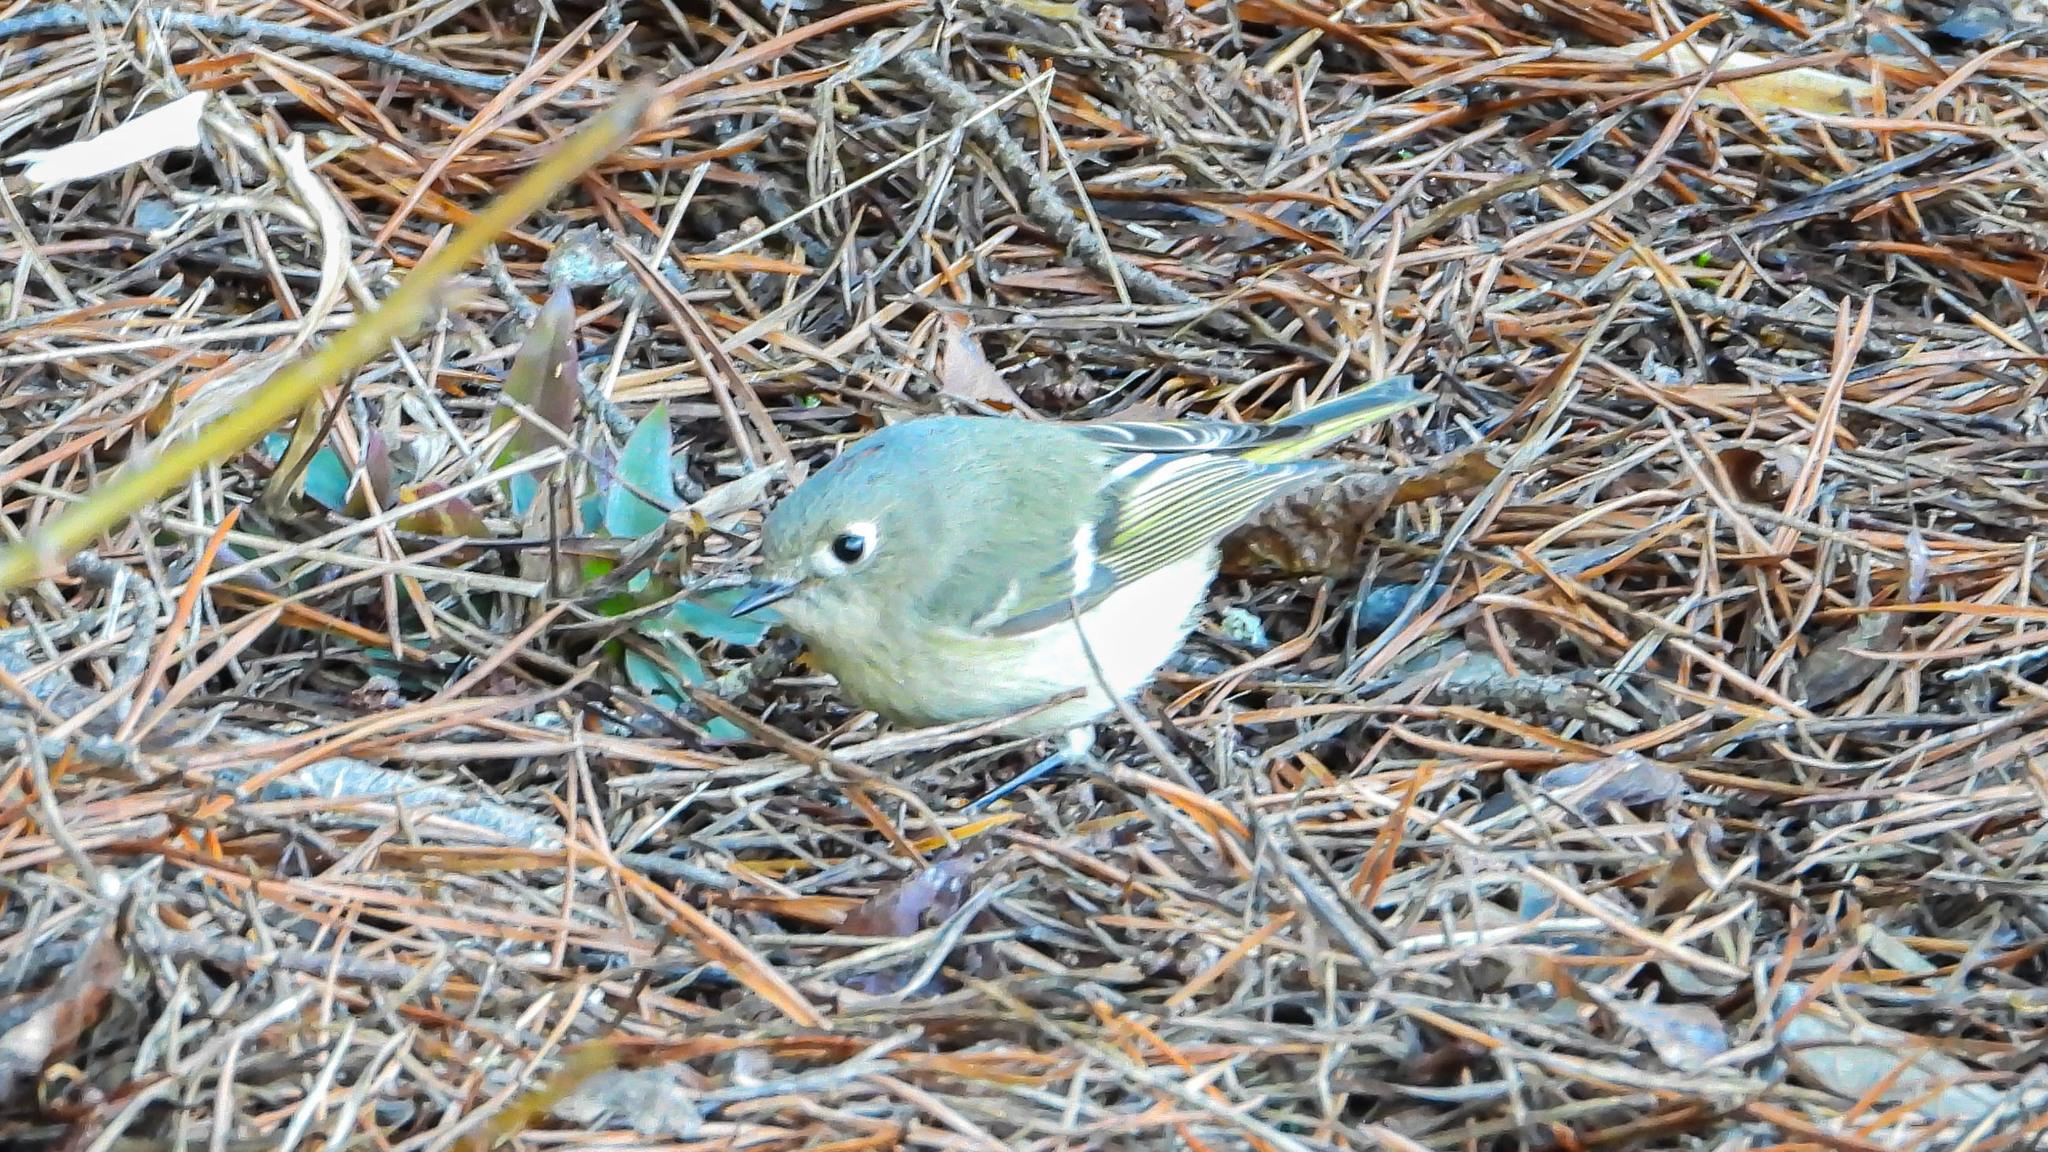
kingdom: Animalia
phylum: Chordata
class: Aves
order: Passeriformes
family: Regulidae
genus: Regulus
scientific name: Regulus calendula
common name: Ruby-crowned kinglet
